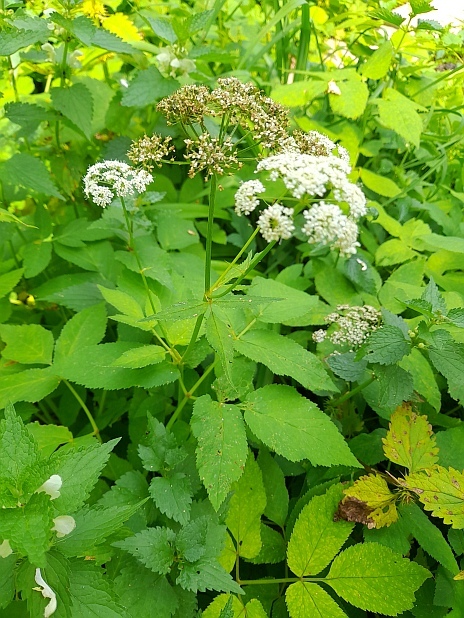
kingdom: Plantae
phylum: Tracheophyta
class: Magnoliopsida
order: Apiales
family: Apiaceae
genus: Aegopodium
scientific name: Aegopodium podagraria
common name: Ground-elder
